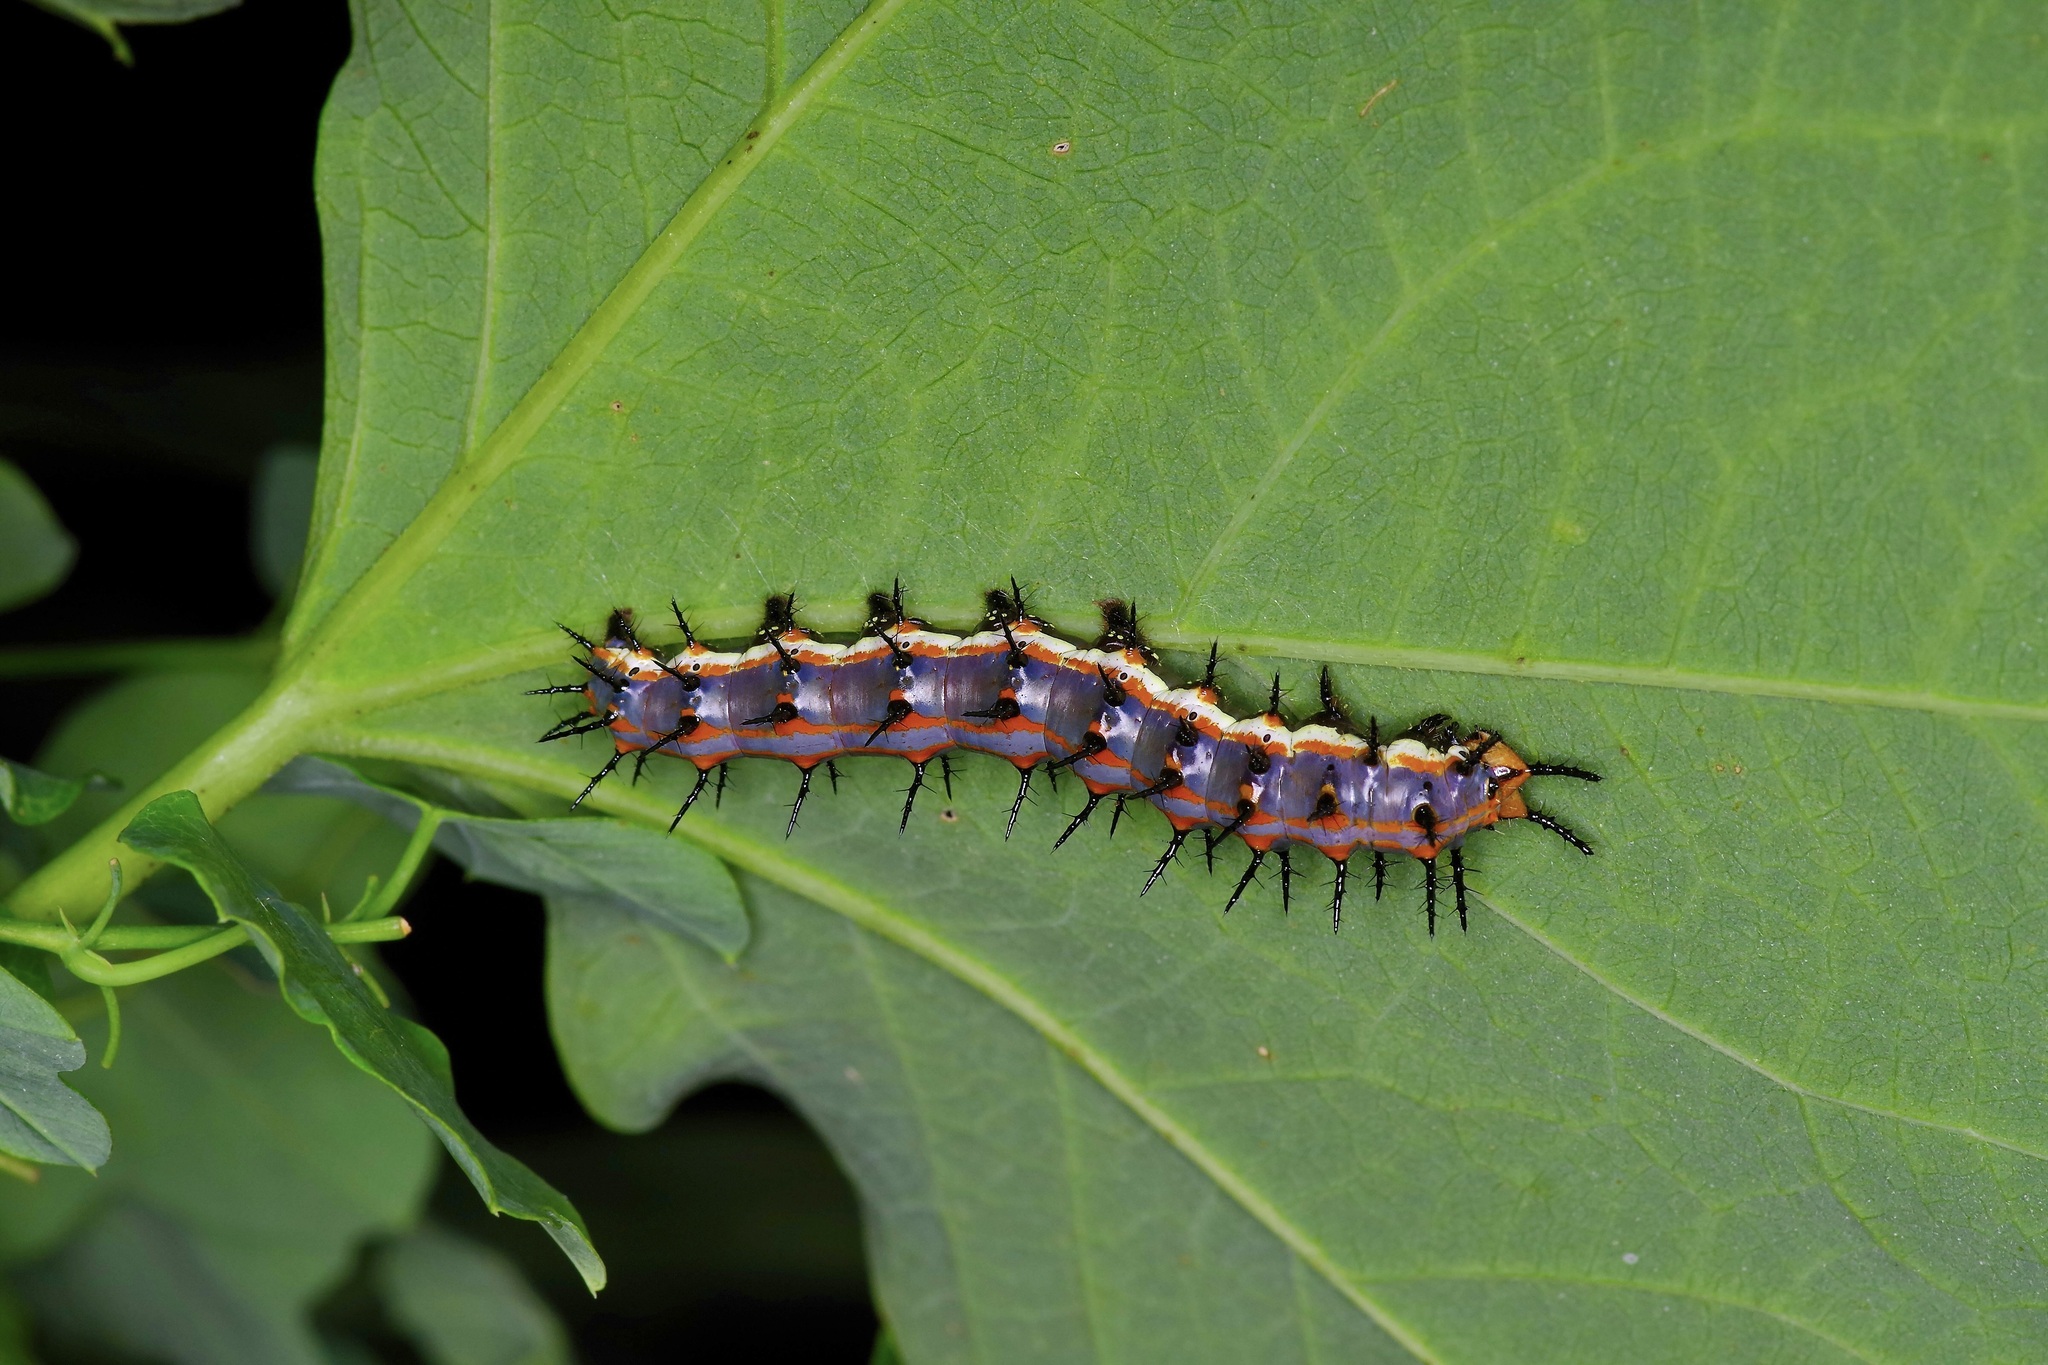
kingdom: Animalia
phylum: Arthropoda
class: Insecta
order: Lepidoptera
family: Nymphalidae
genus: Dione
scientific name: Dione vanillae
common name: Gulf fritillary
